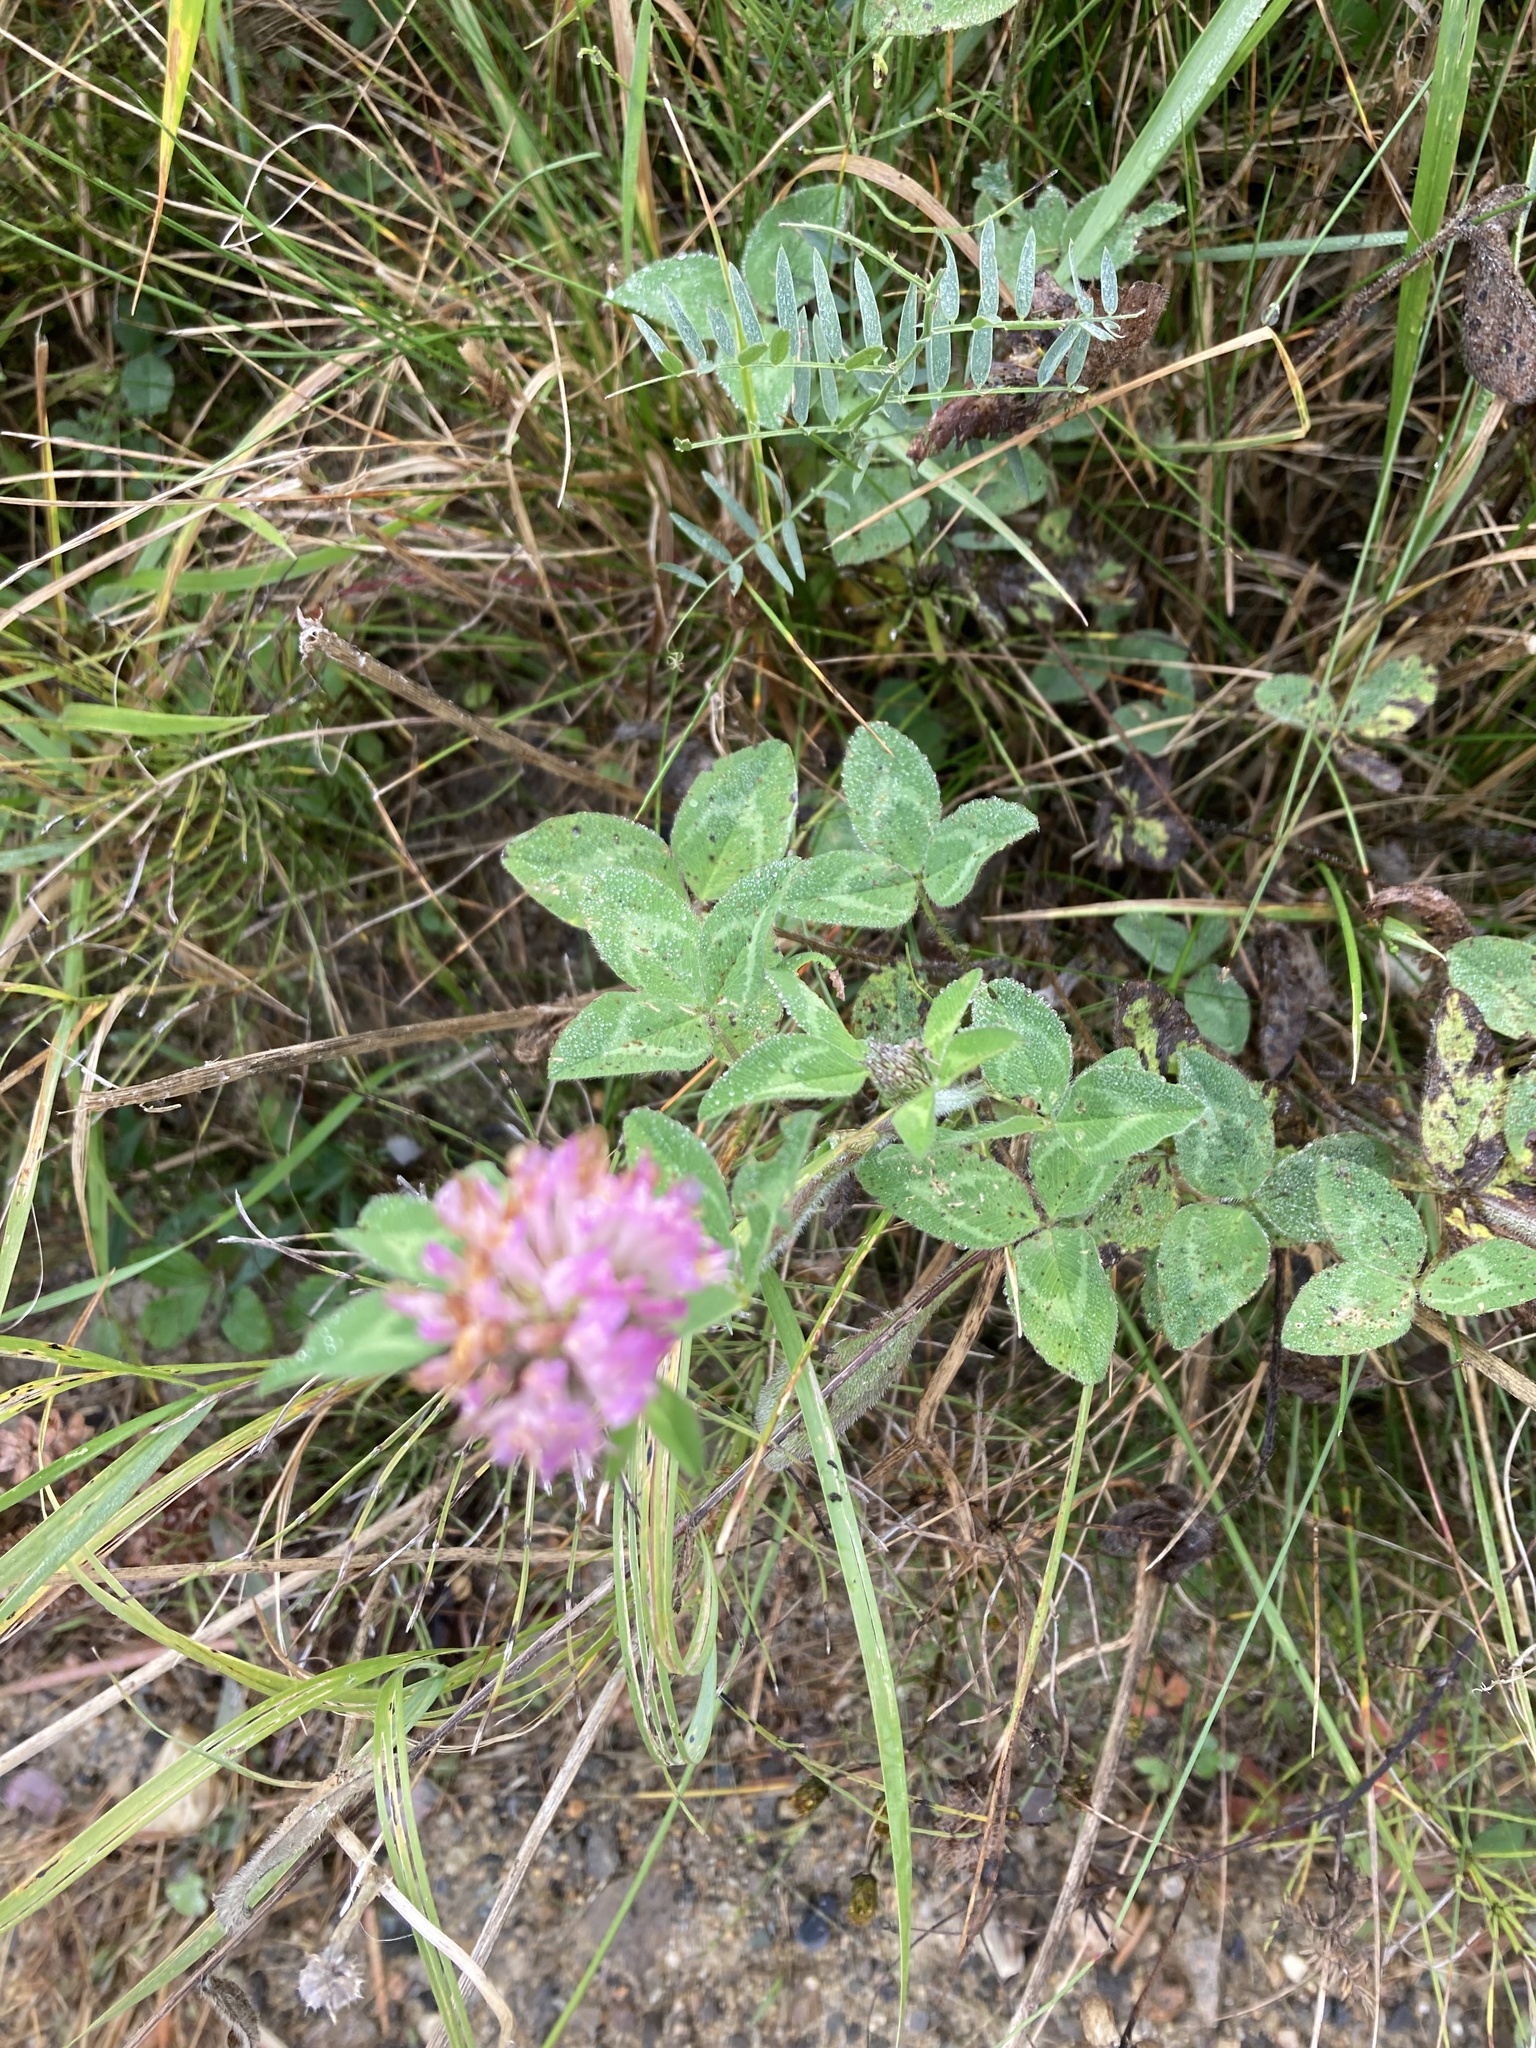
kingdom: Plantae
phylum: Tracheophyta
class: Magnoliopsida
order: Fabales
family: Fabaceae
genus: Trifolium
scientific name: Trifolium pratense
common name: Red clover
